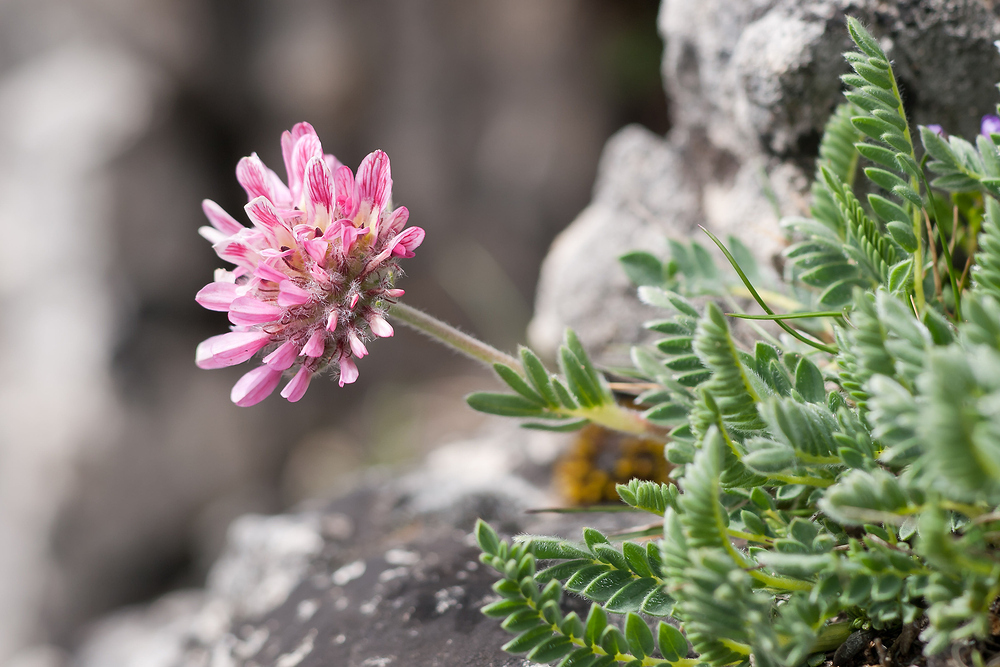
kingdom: Plantae
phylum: Tracheophyta
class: Magnoliopsida
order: Fabales
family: Fabaceae
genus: Anthyllis
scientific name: Anthyllis montana
